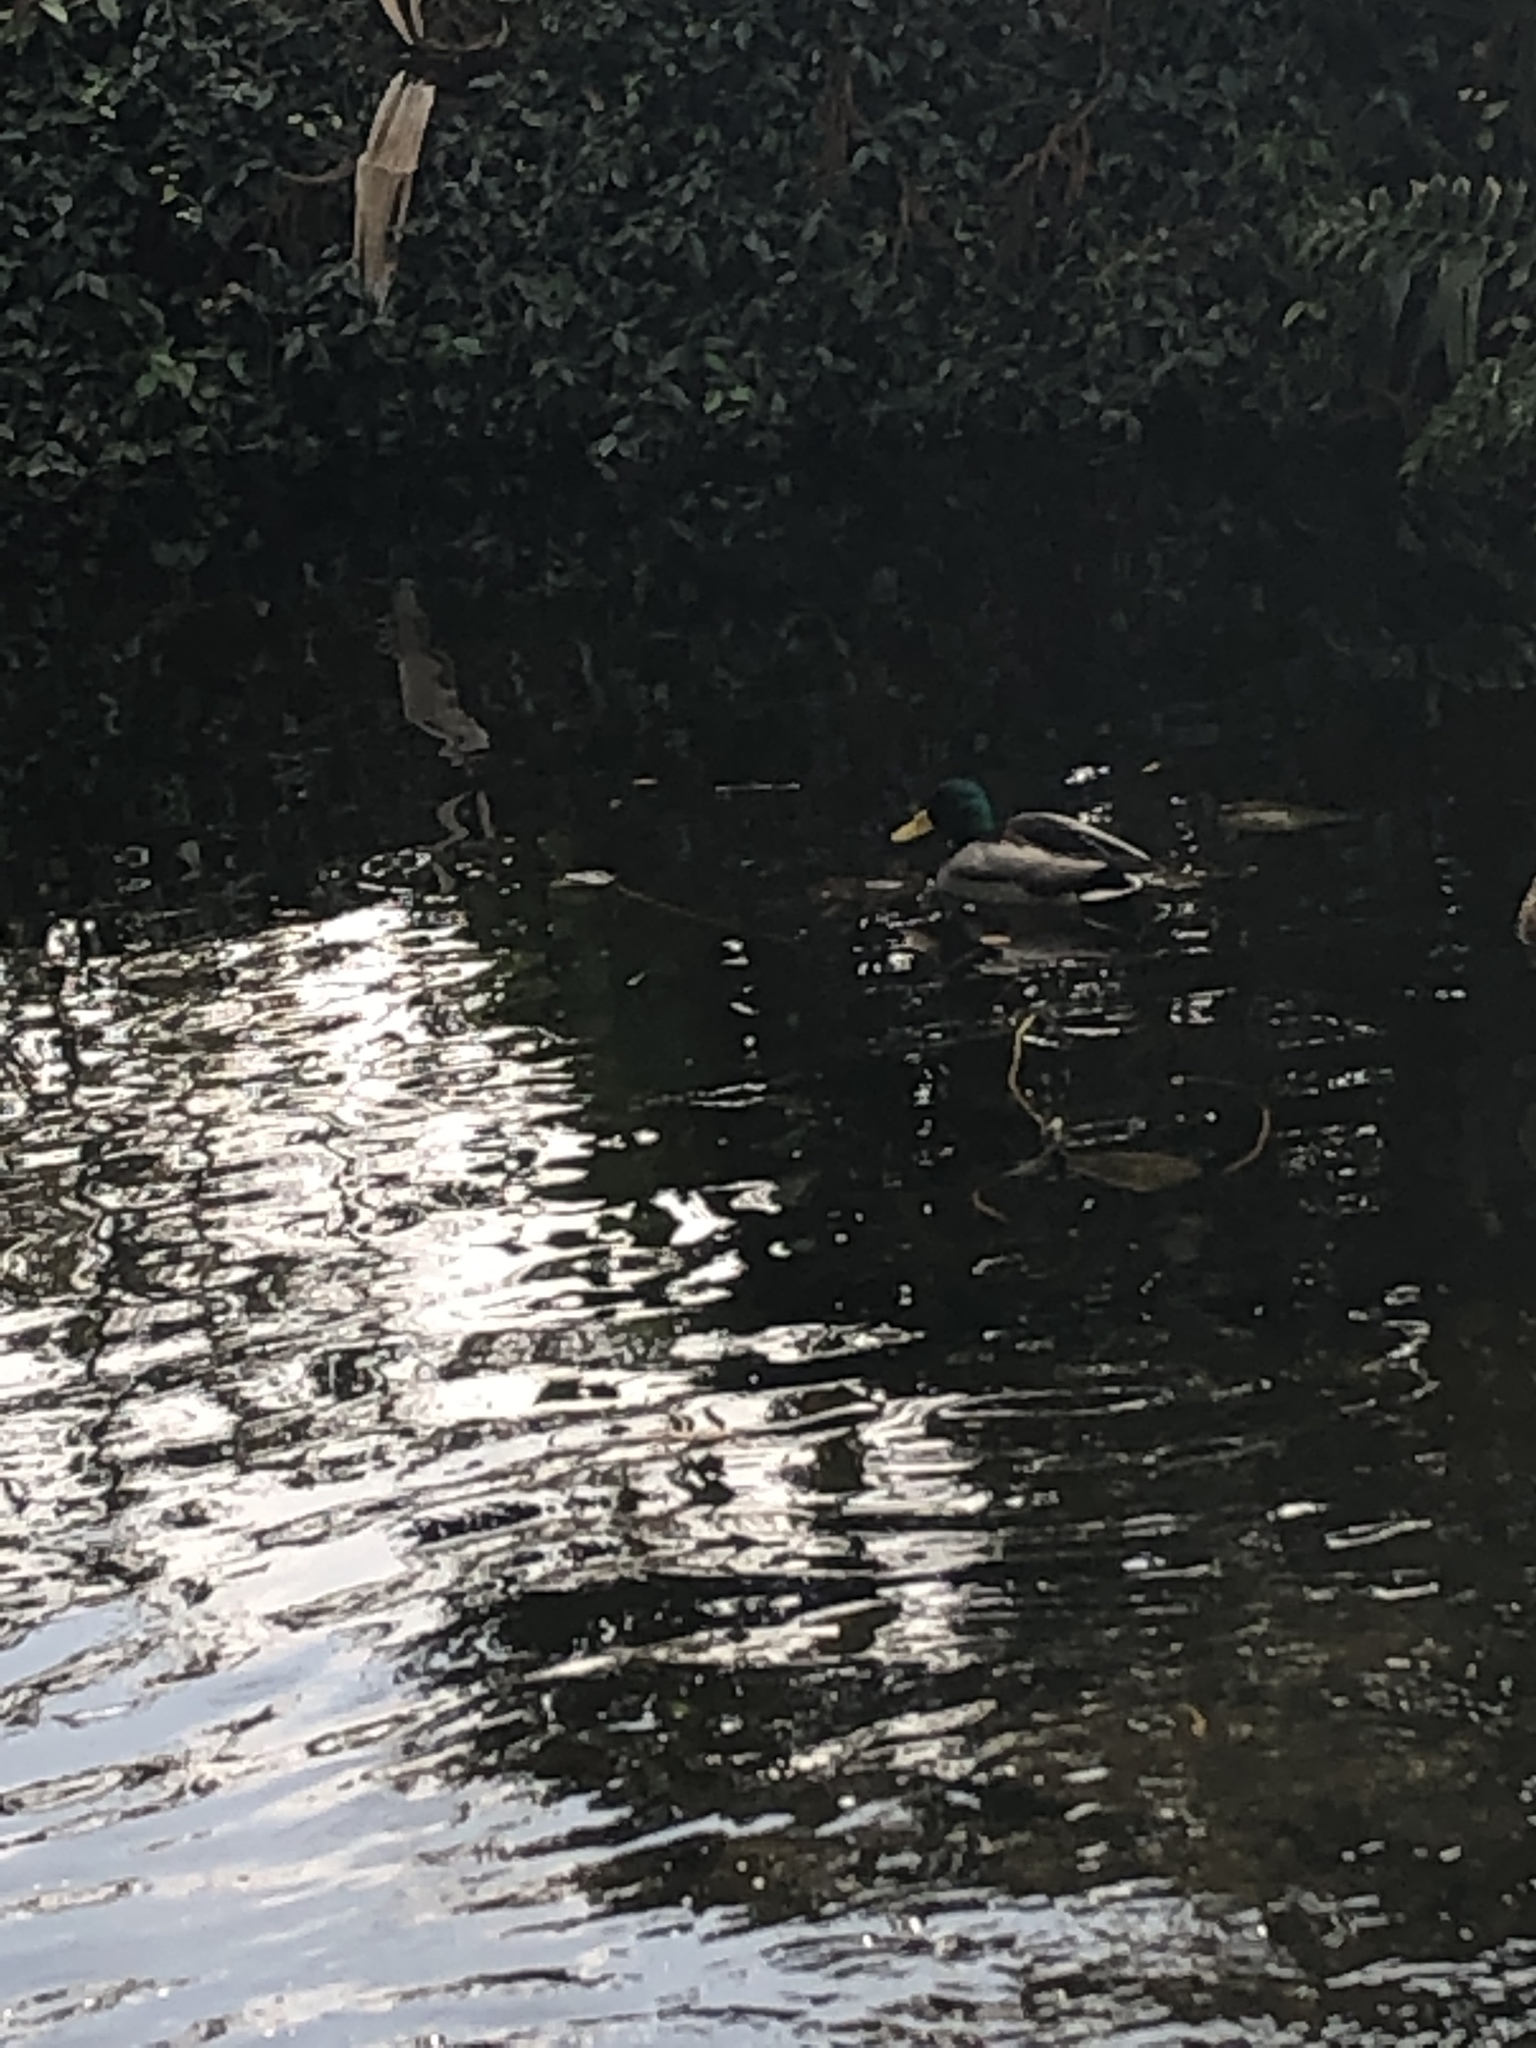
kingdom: Animalia
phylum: Chordata
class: Aves
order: Anseriformes
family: Anatidae
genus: Anas
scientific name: Anas platyrhynchos
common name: Mallard
